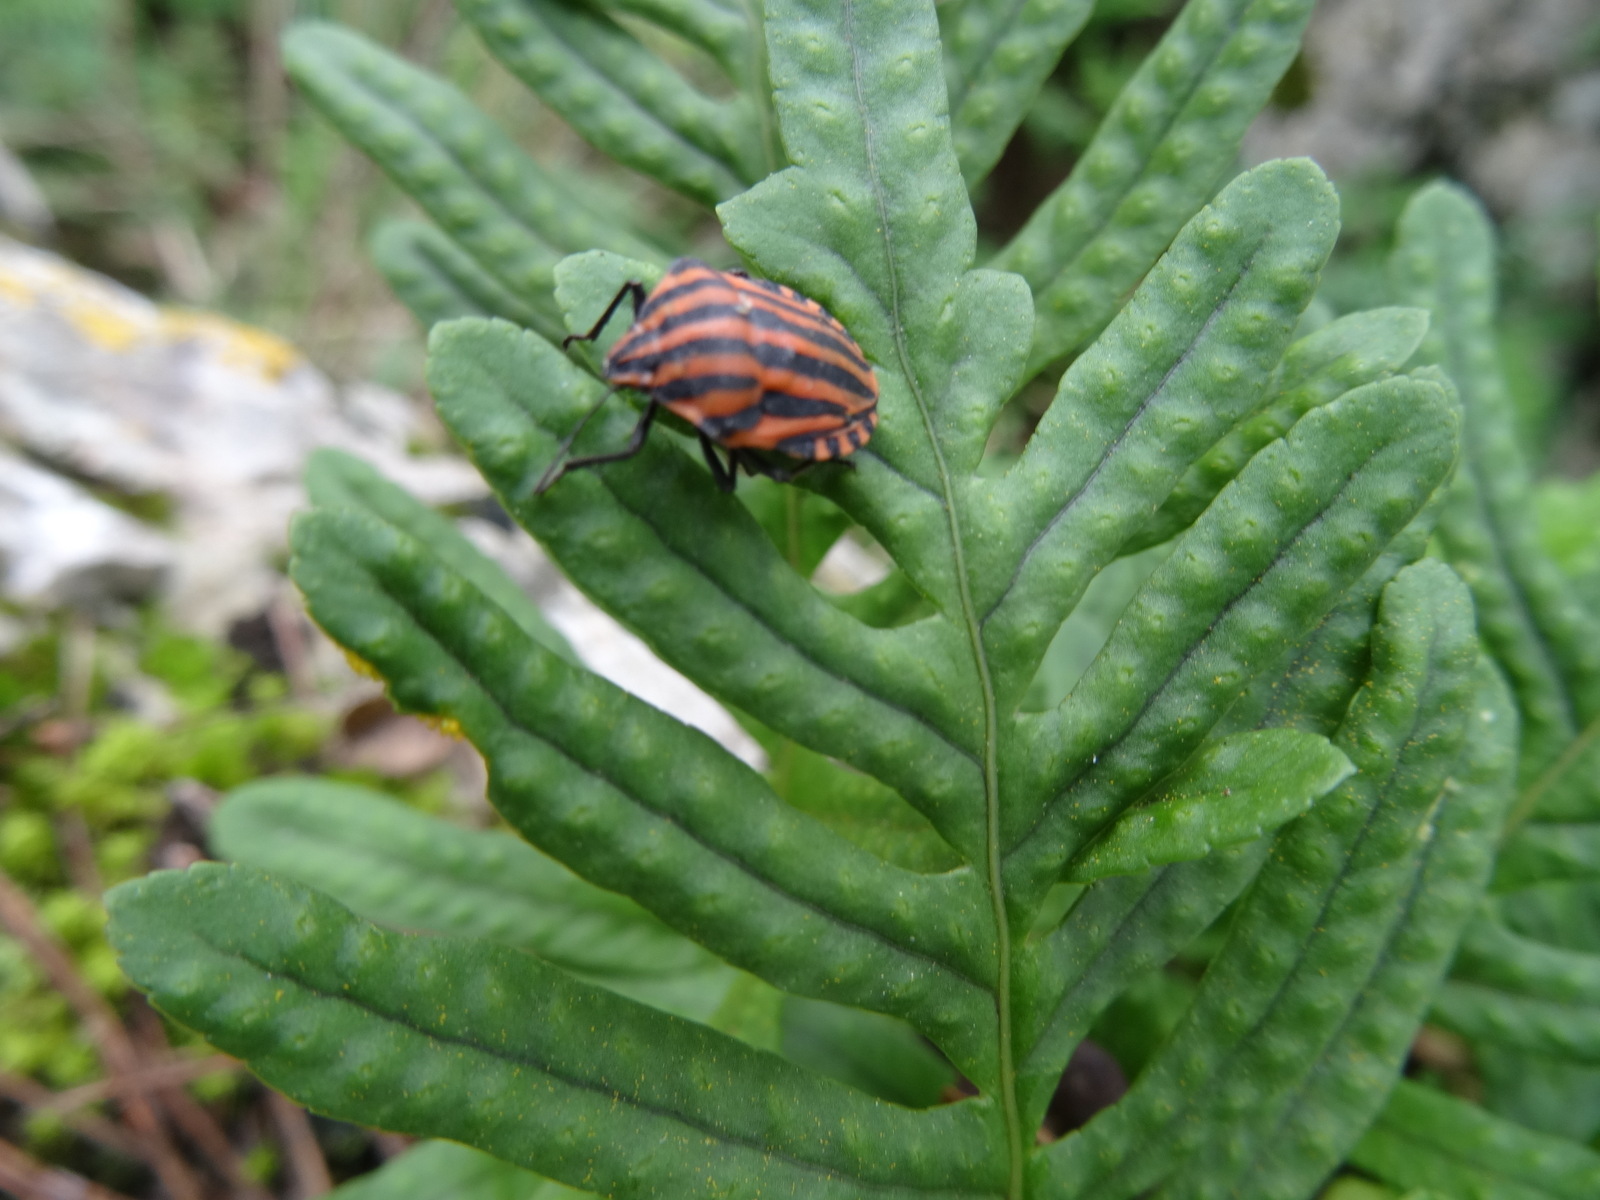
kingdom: Animalia
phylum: Arthropoda
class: Insecta
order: Hemiptera
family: Pentatomidae
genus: Graphosoma
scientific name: Graphosoma italicum
